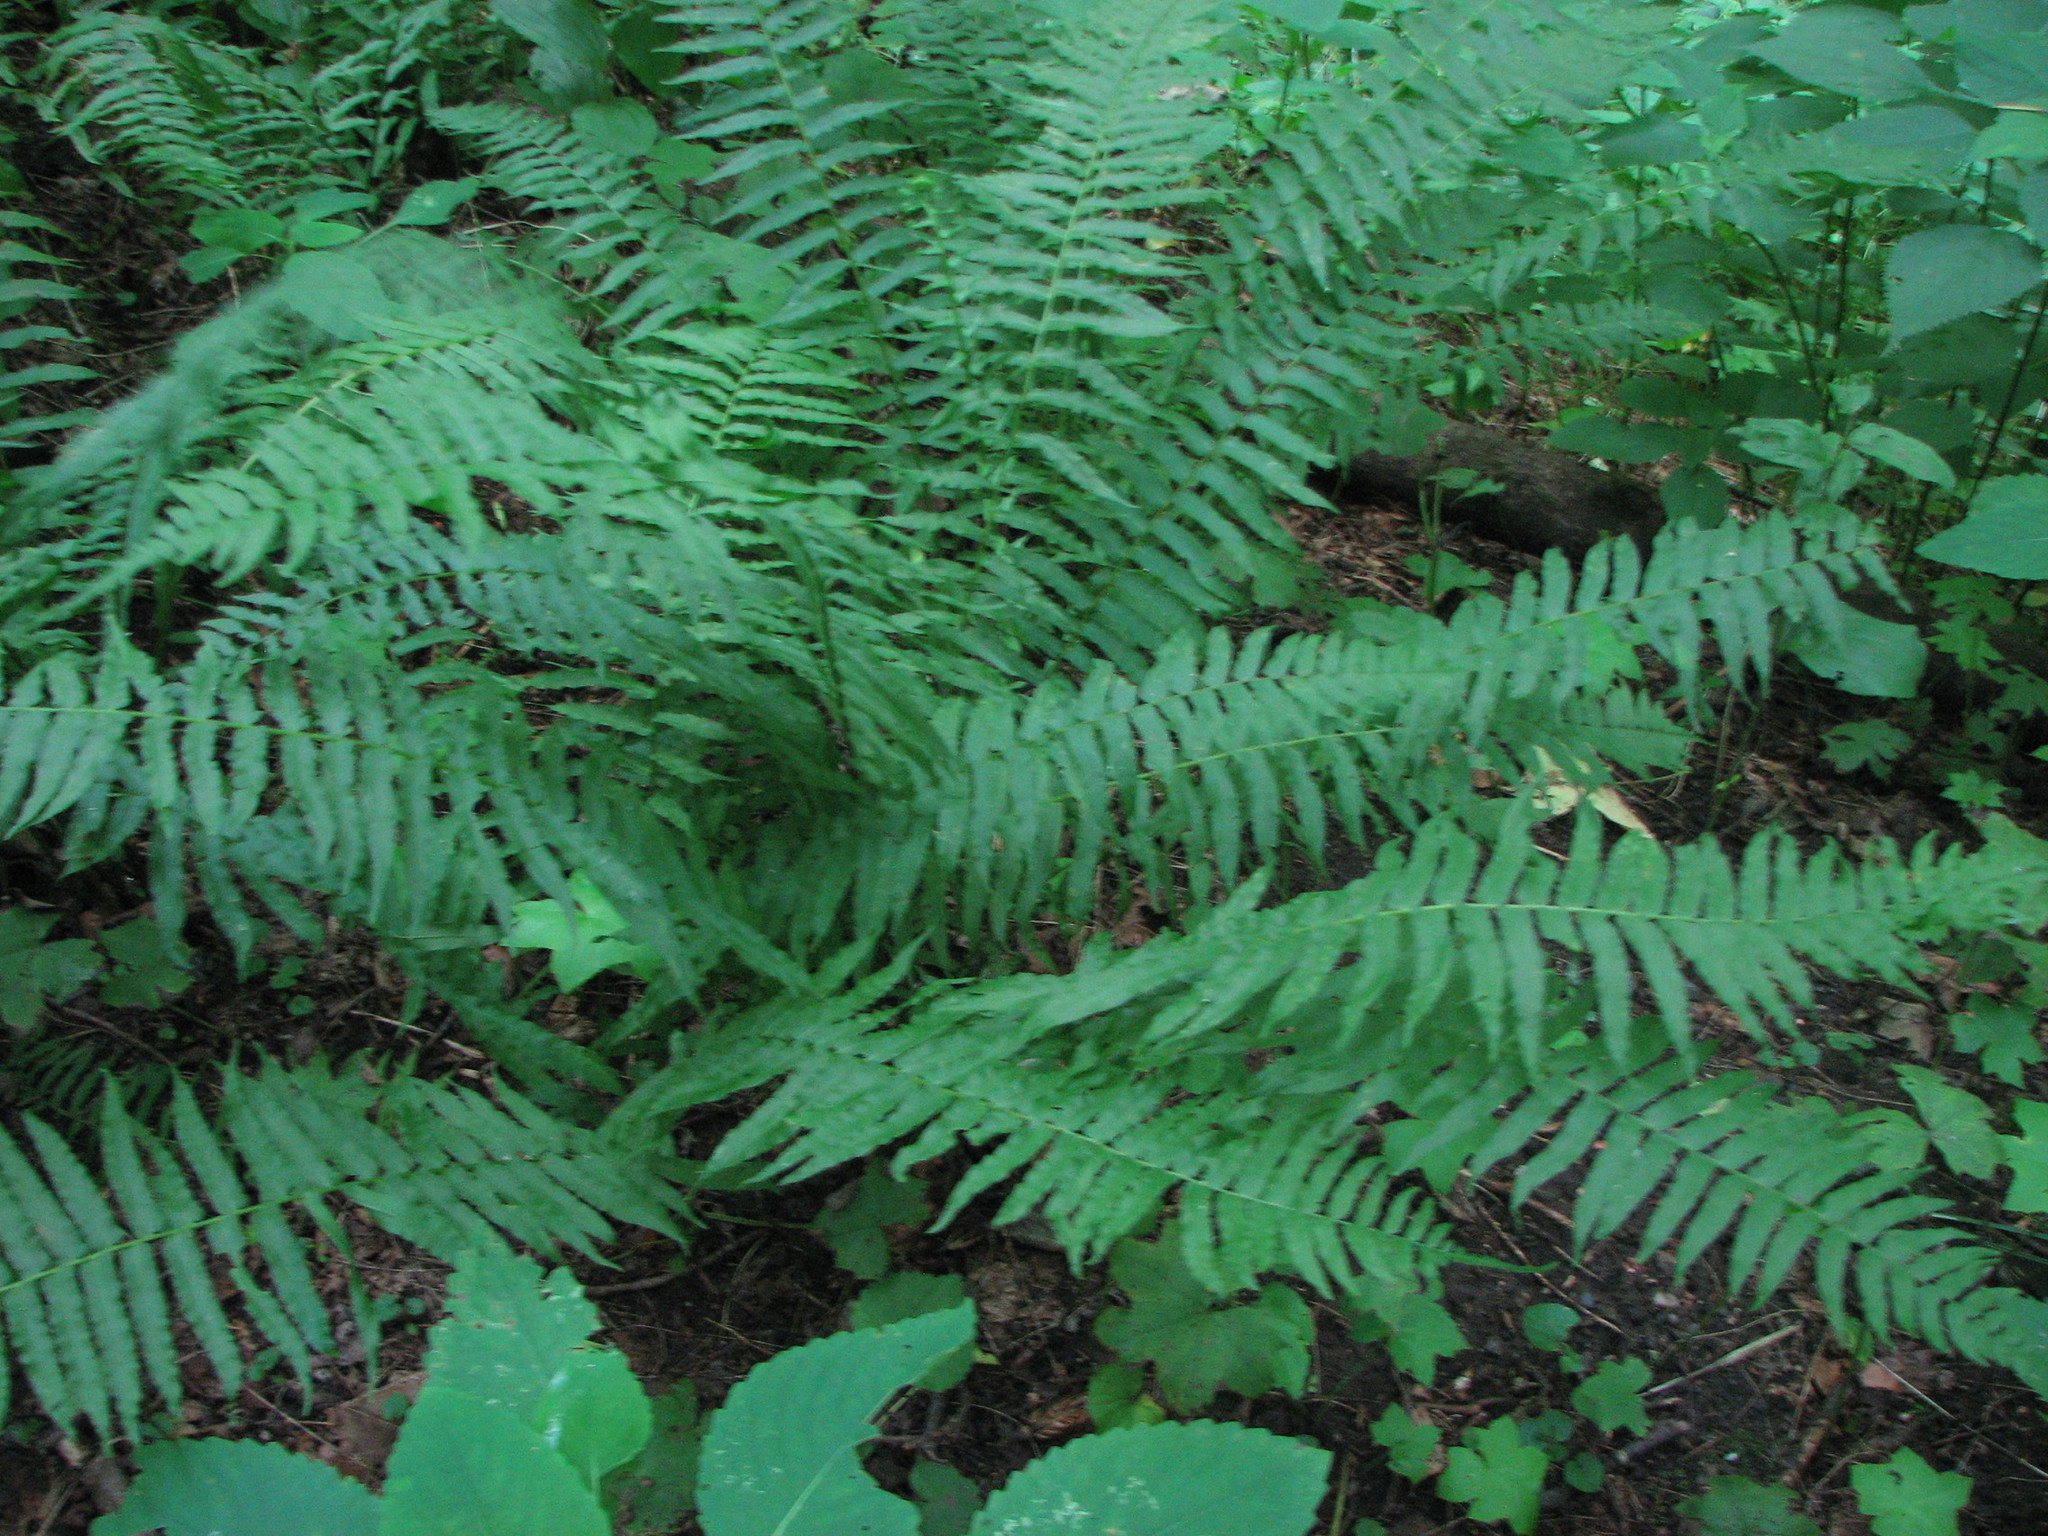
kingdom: Plantae
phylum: Tracheophyta
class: Polypodiopsida
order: Polypodiales
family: Diplaziopsidaceae
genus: Homalosorus
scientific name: Homalosorus pycnocarpos
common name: Glade fern
